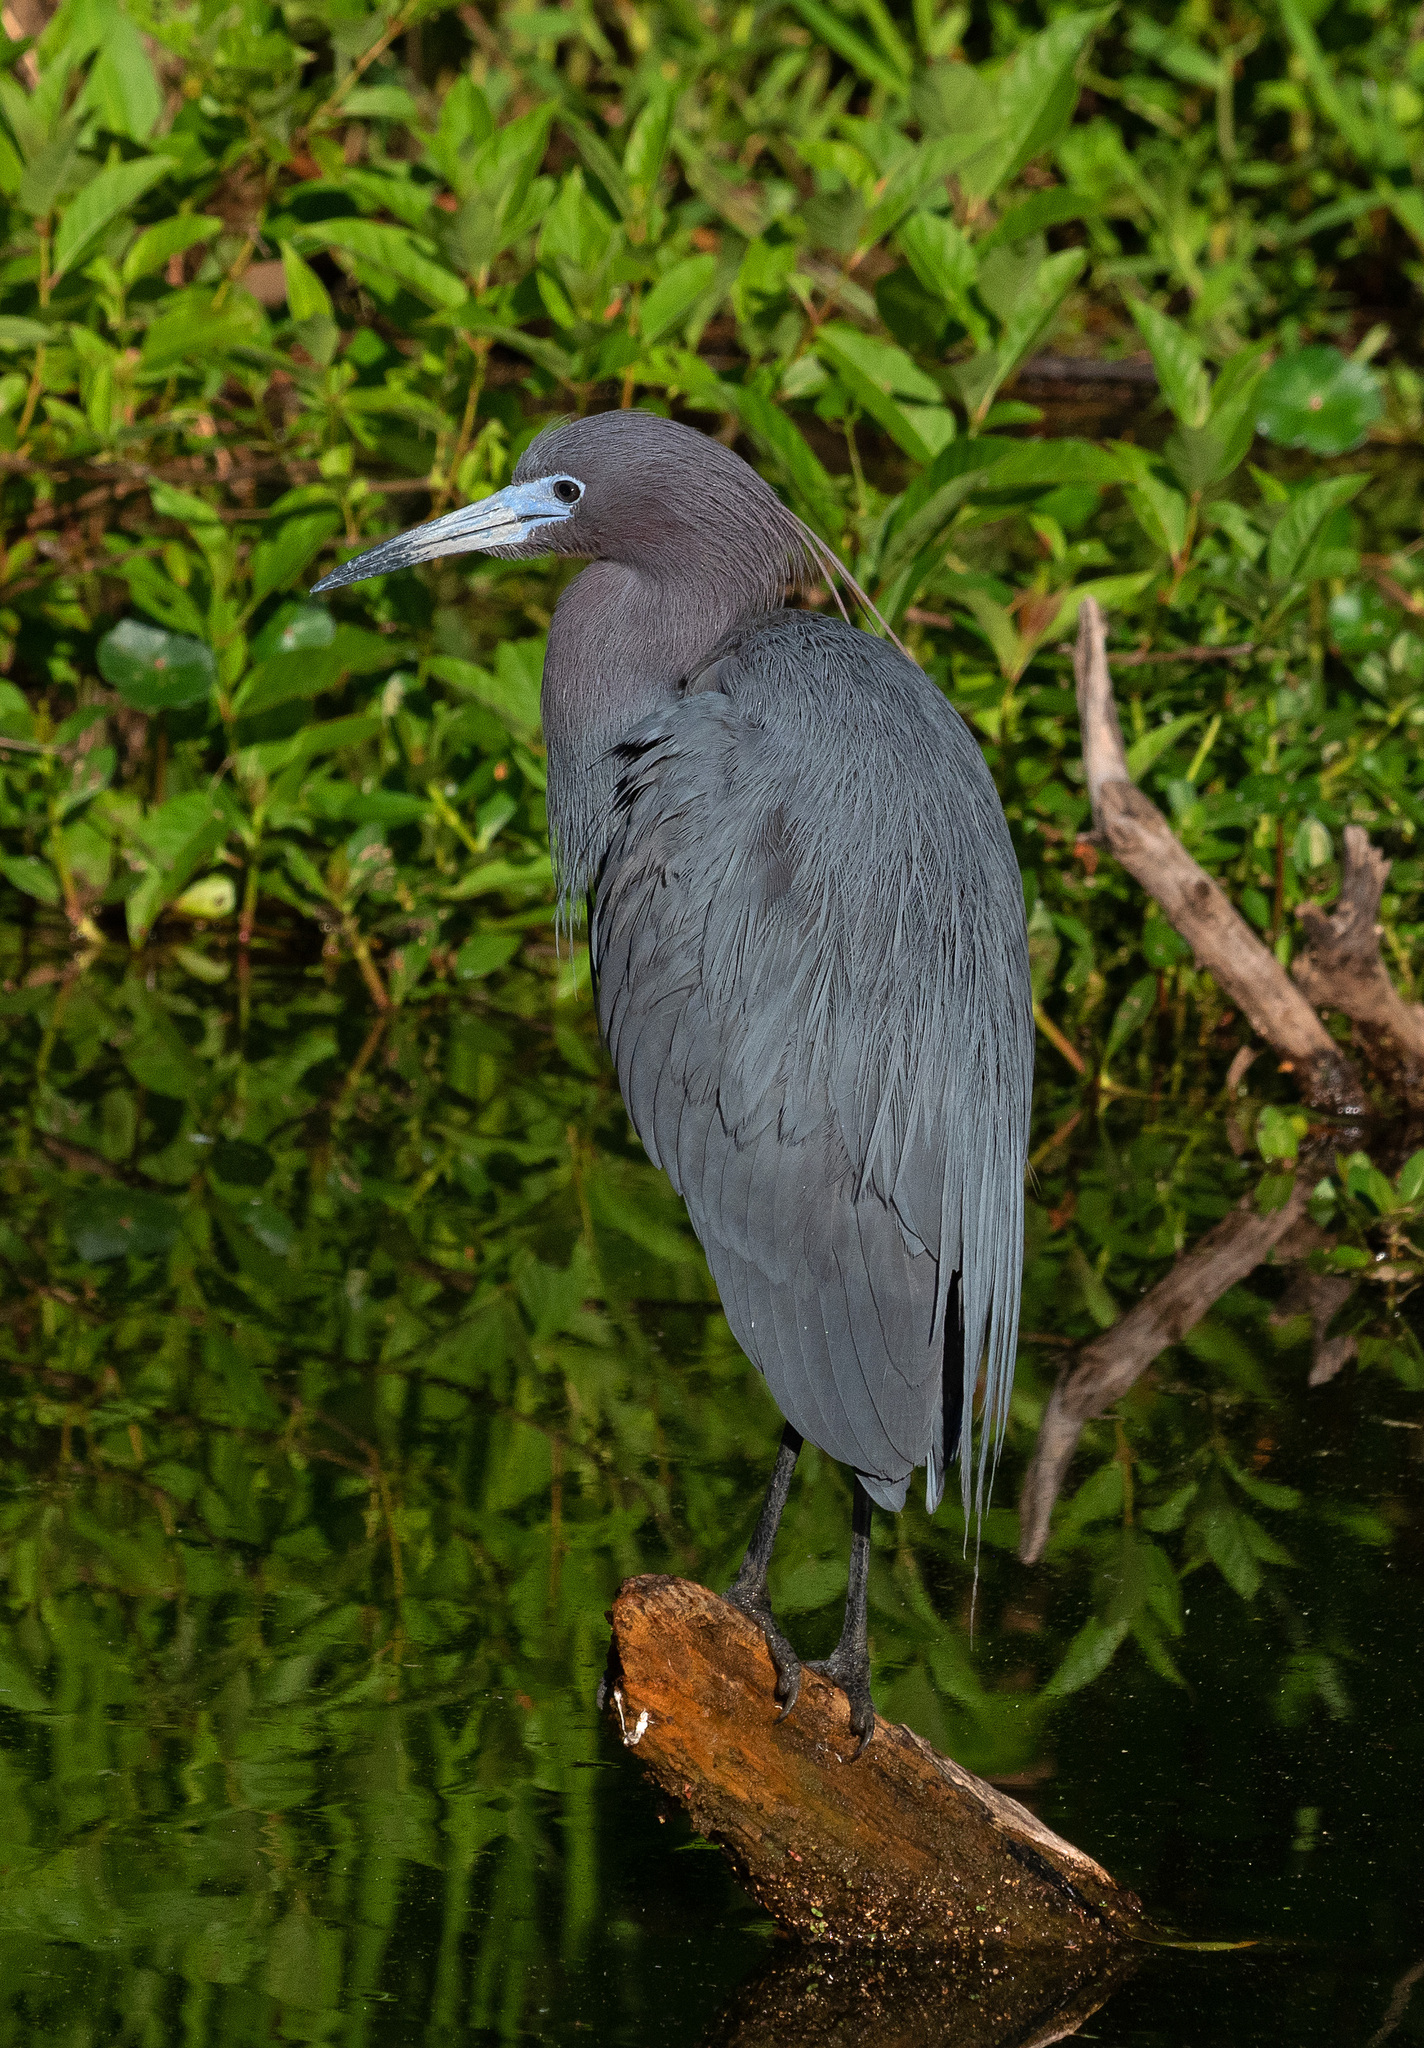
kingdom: Animalia
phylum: Chordata
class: Aves
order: Pelecaniformes
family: Ardeidae
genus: Egretta
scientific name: Egretta caerulea
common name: Little blue heron
